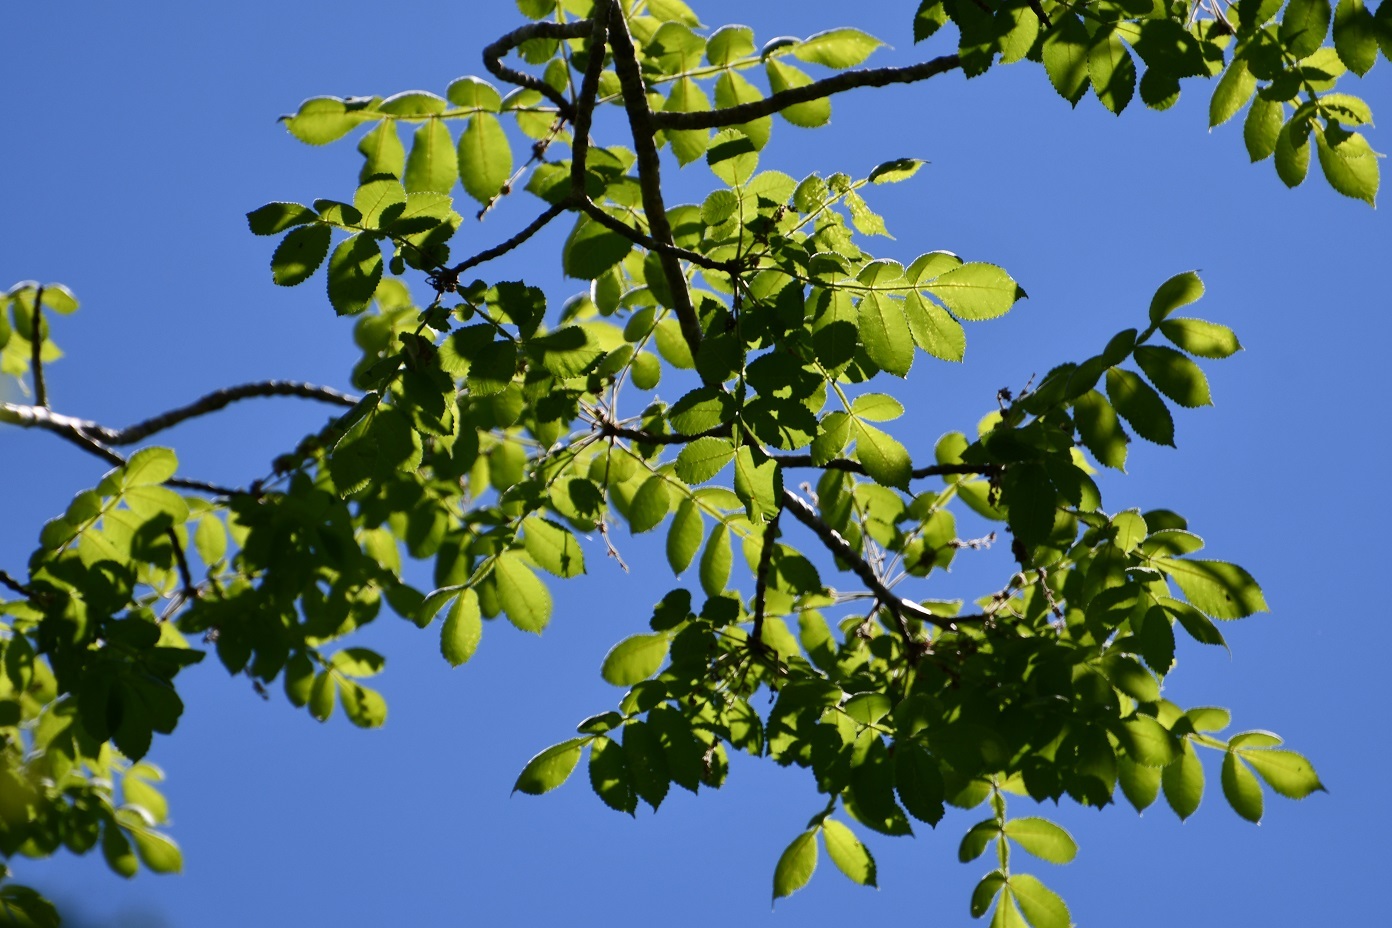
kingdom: Plantae
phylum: Tracheophyta
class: Magnoliopsida
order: Sapindales
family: Burseraceae
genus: Bursera
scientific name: Bursera excelsa
